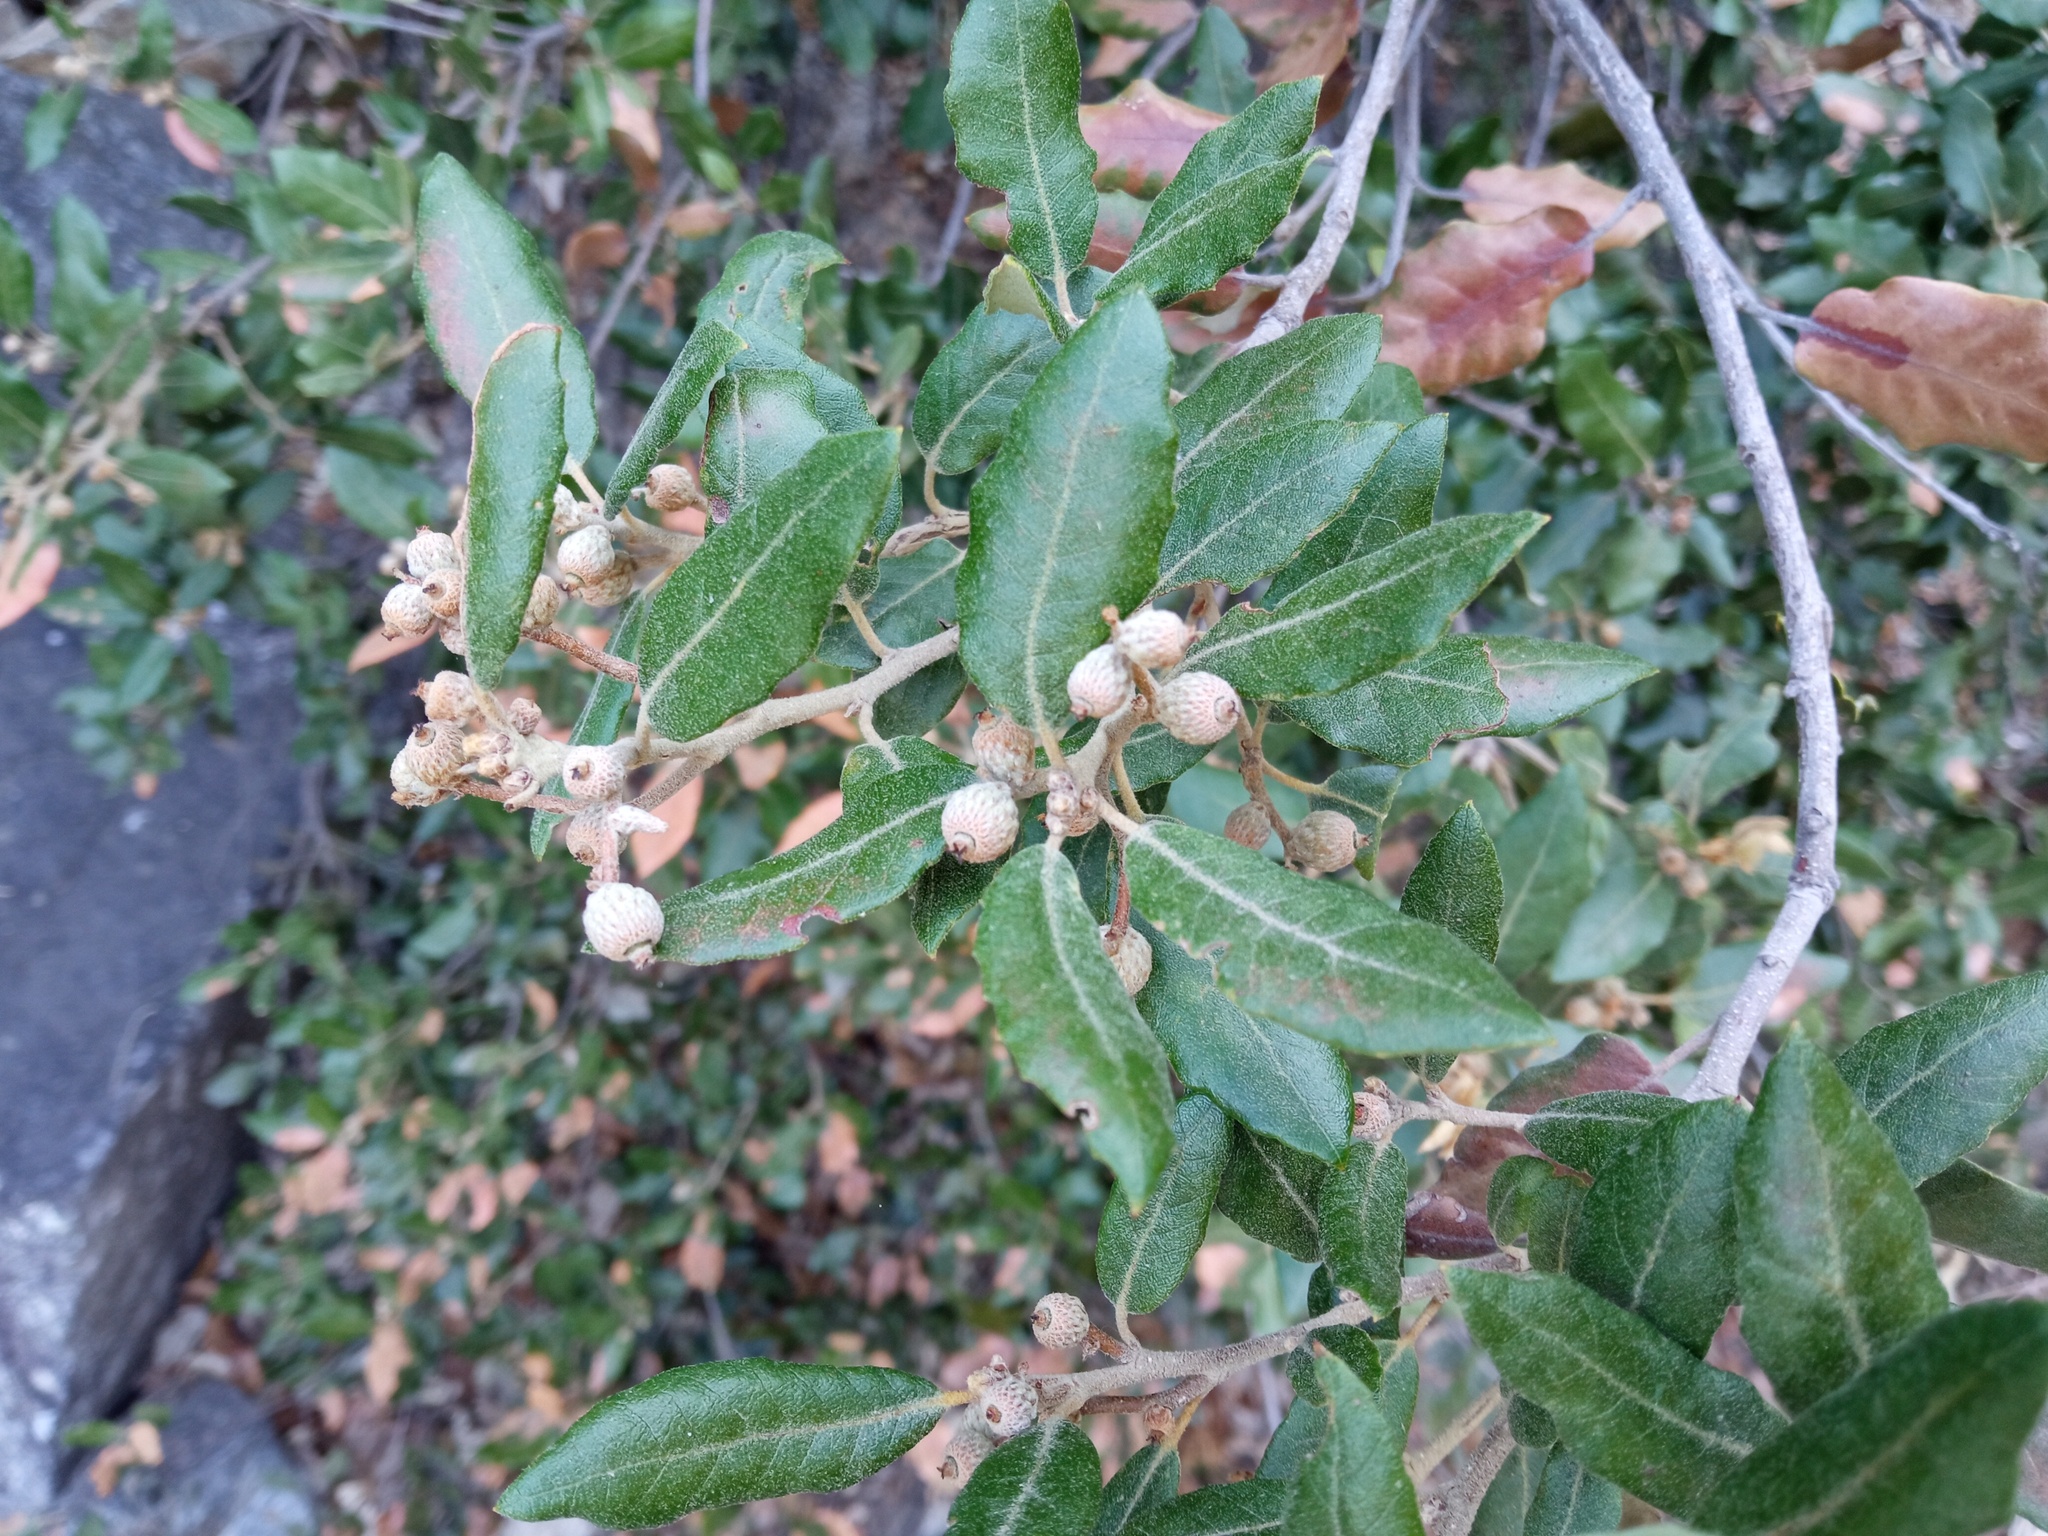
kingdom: Plantae
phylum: Tracheophyta
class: Magnoliopsida
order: Fagales
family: Fagaceae
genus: Quercus
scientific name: Quercus ilex
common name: Evergreen oak
